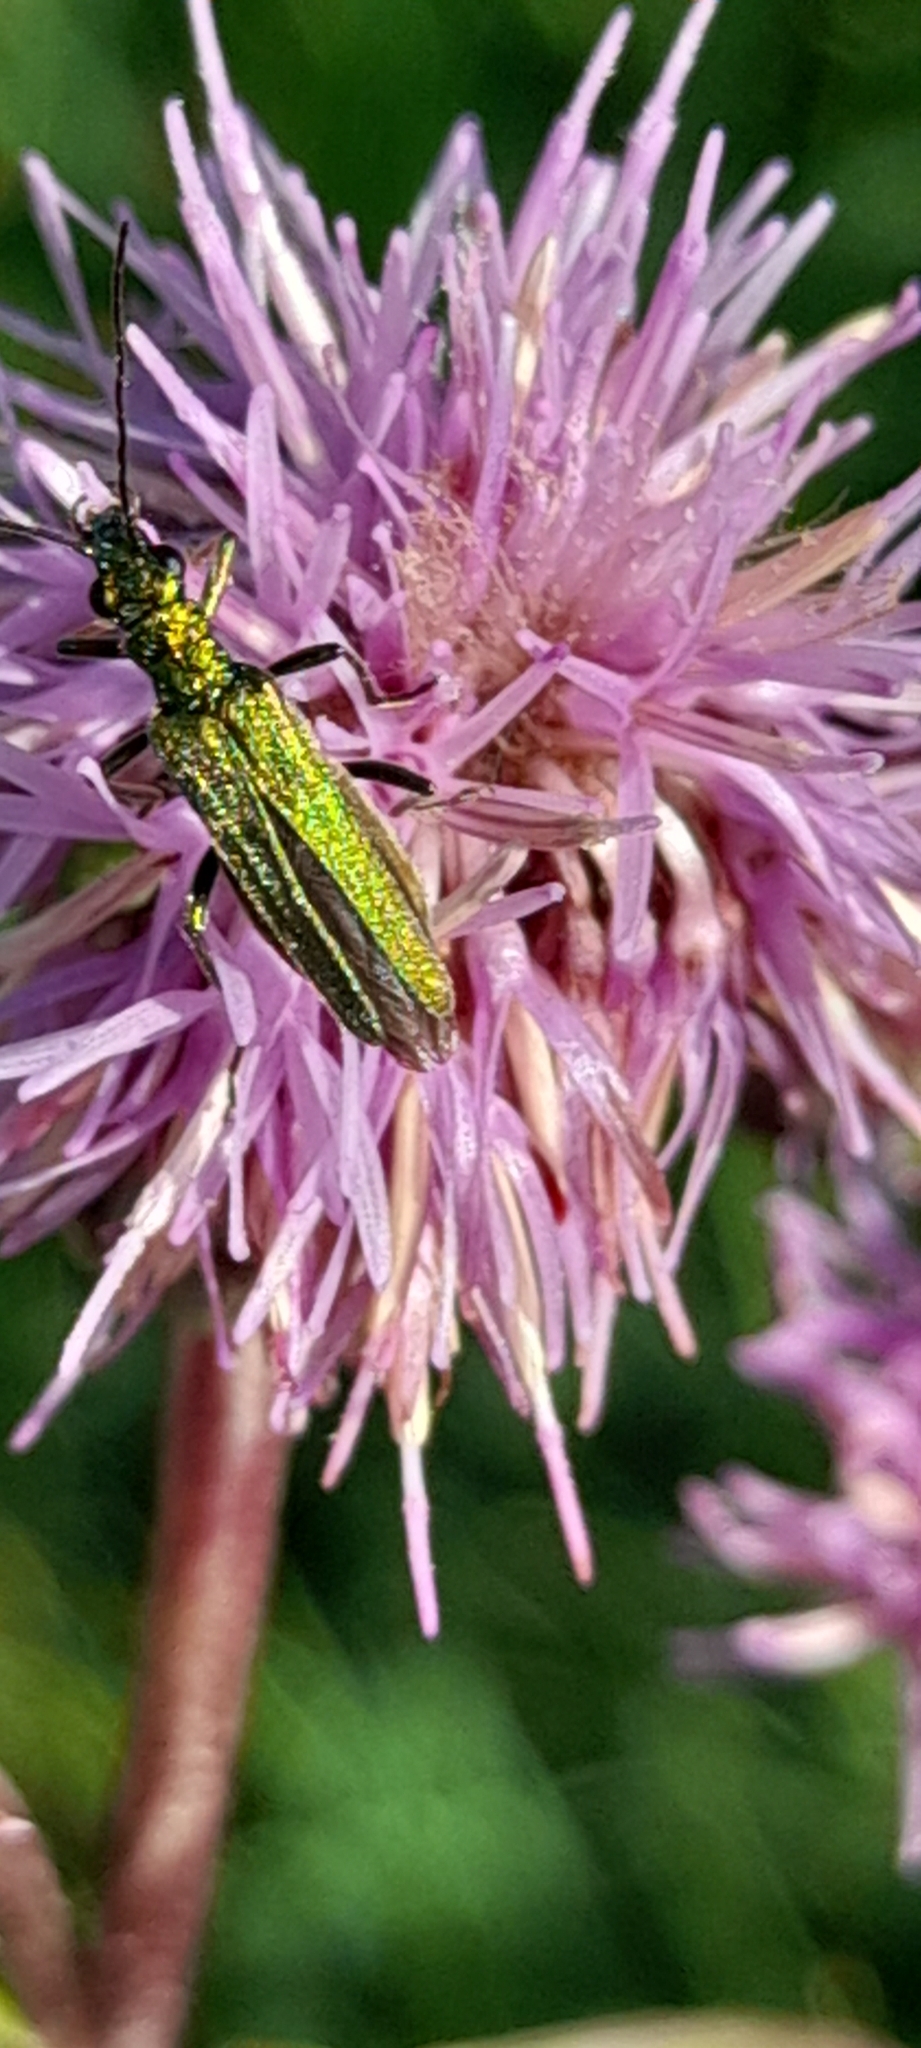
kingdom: Animalia
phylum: Arthropoda
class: Insecta
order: Coleoptera
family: Oedemeridae
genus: Oedemera
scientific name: Oedemera nobilis
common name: Swollen-thighed beetle
